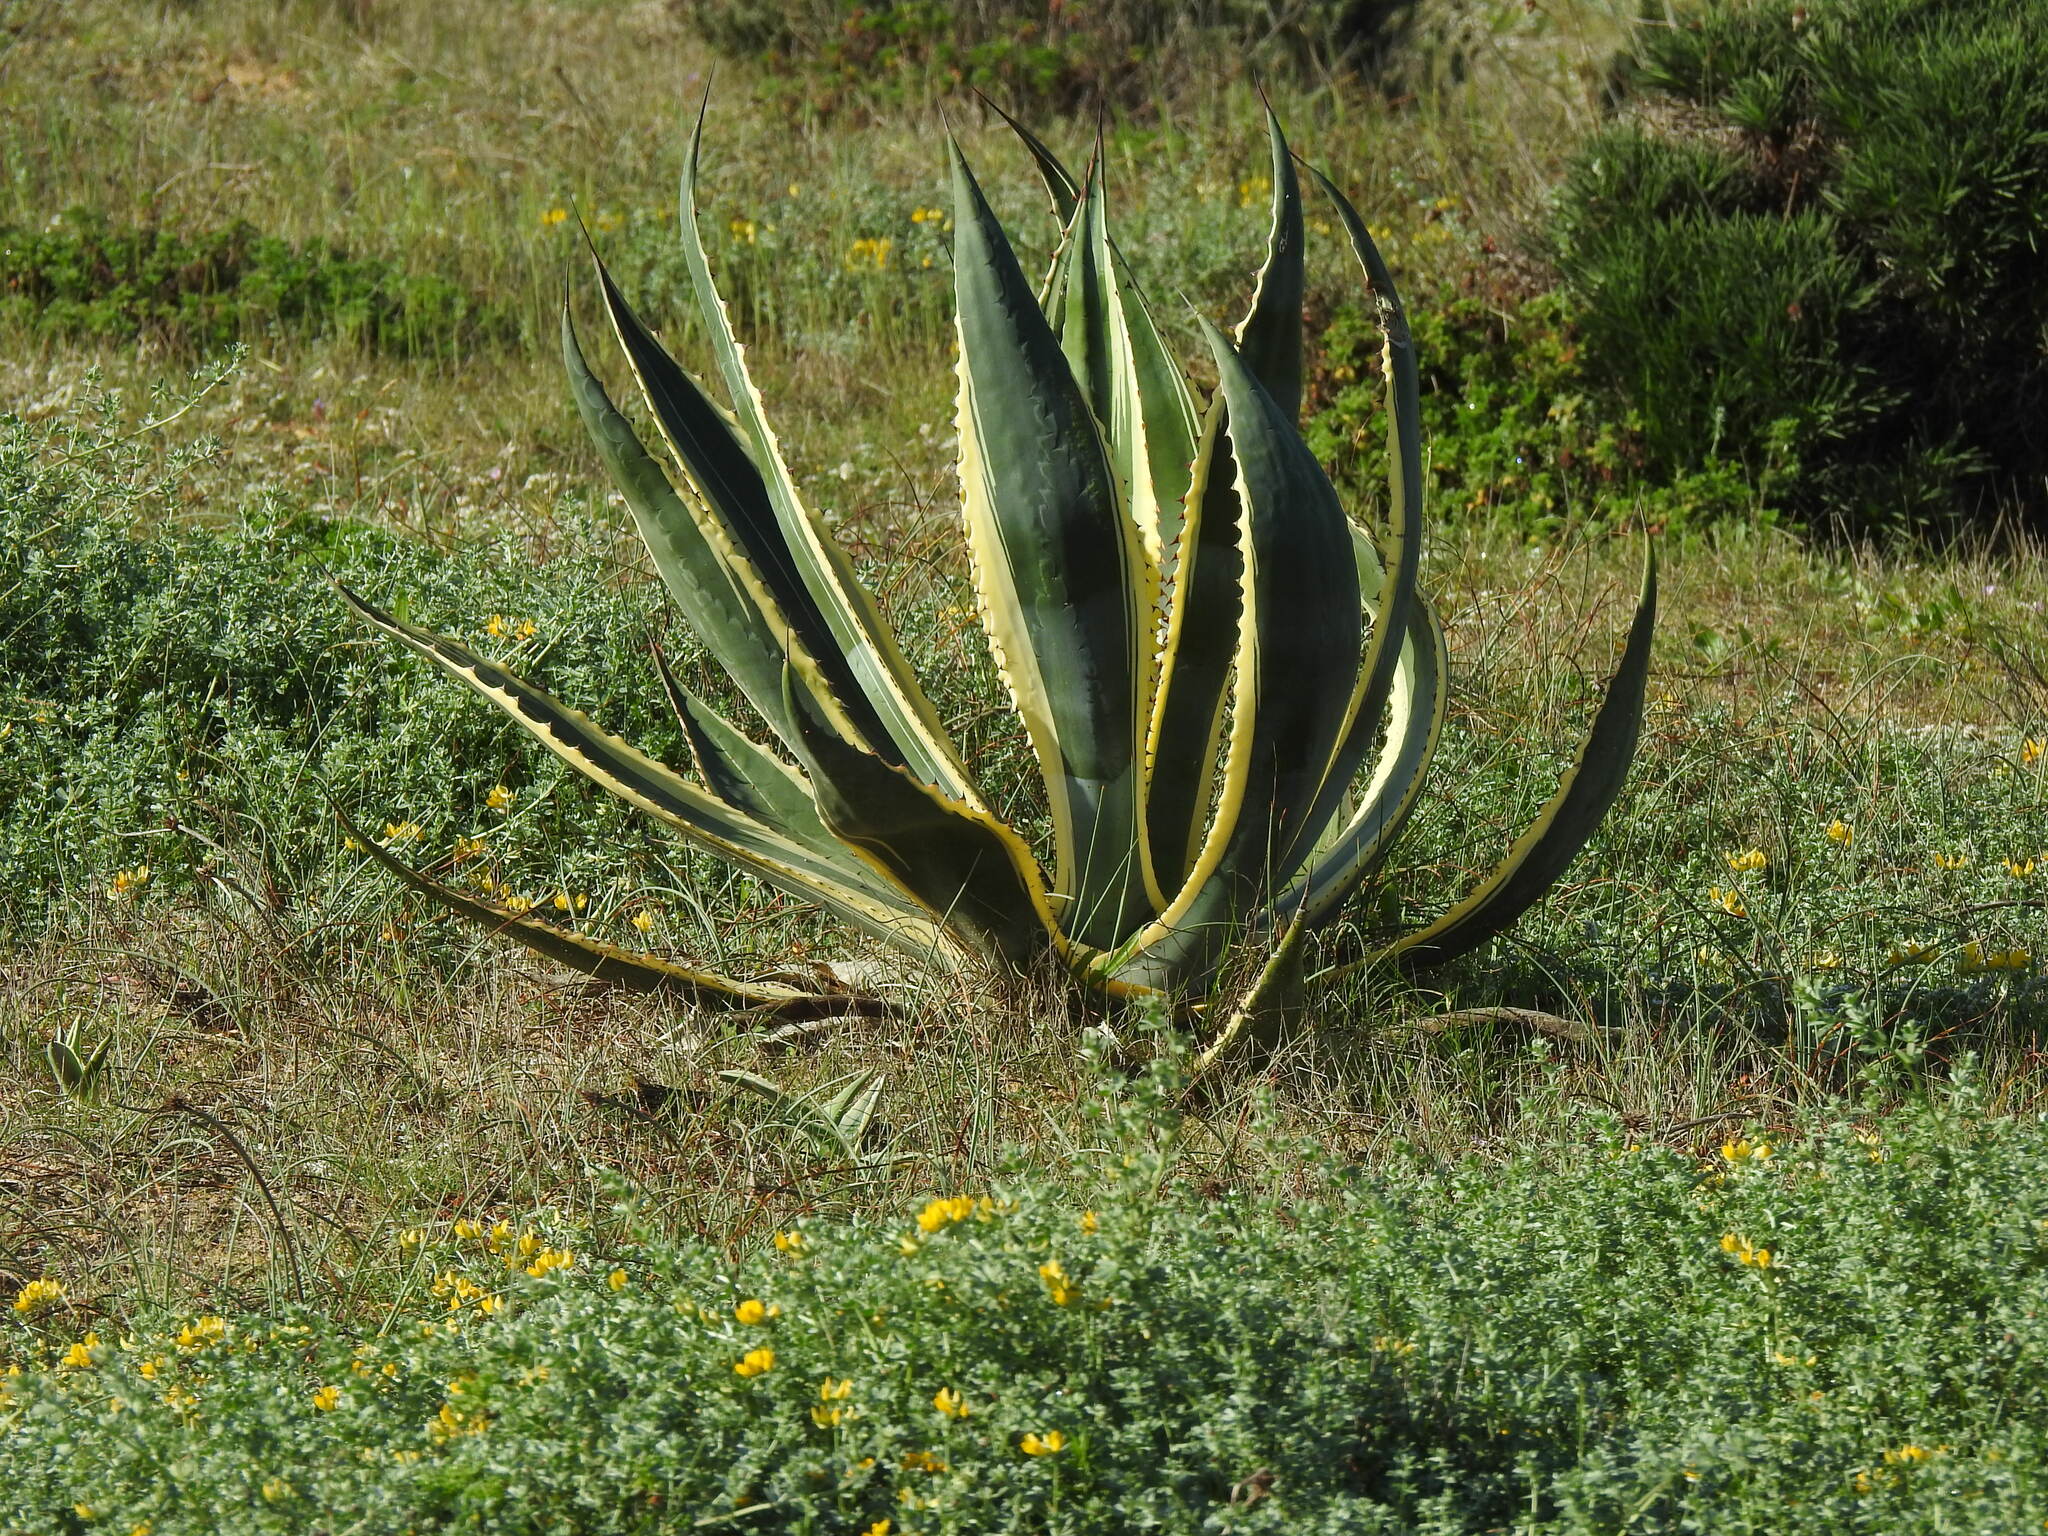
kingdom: Plantae
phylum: Tracheophyta
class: Liliopsida
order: Asparagales
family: Asparagaceae
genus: Agave
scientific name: Agave americana
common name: Centuryplant
